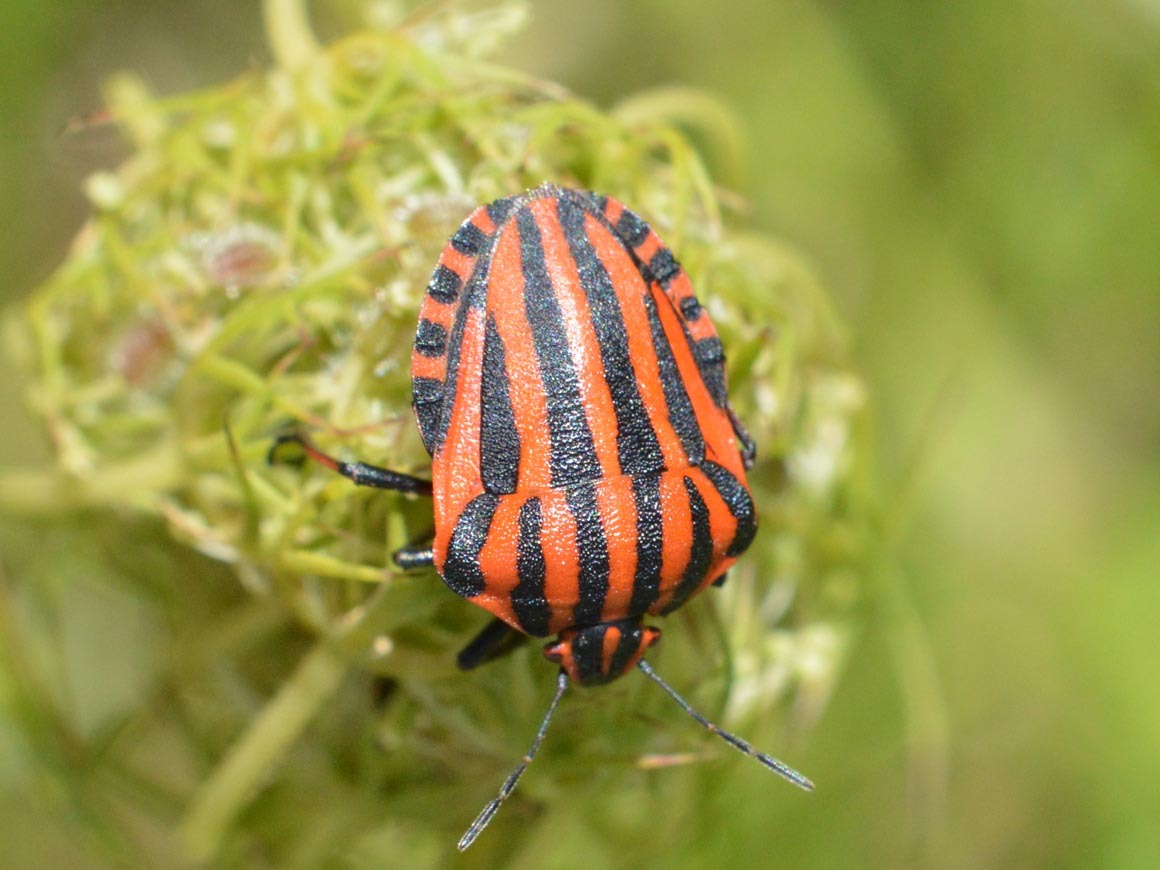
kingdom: Animalia
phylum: Arthropoda
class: Insecta
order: Hemiptera
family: Pentatomidae
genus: Graphosoma
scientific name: Graphosoma italicum
